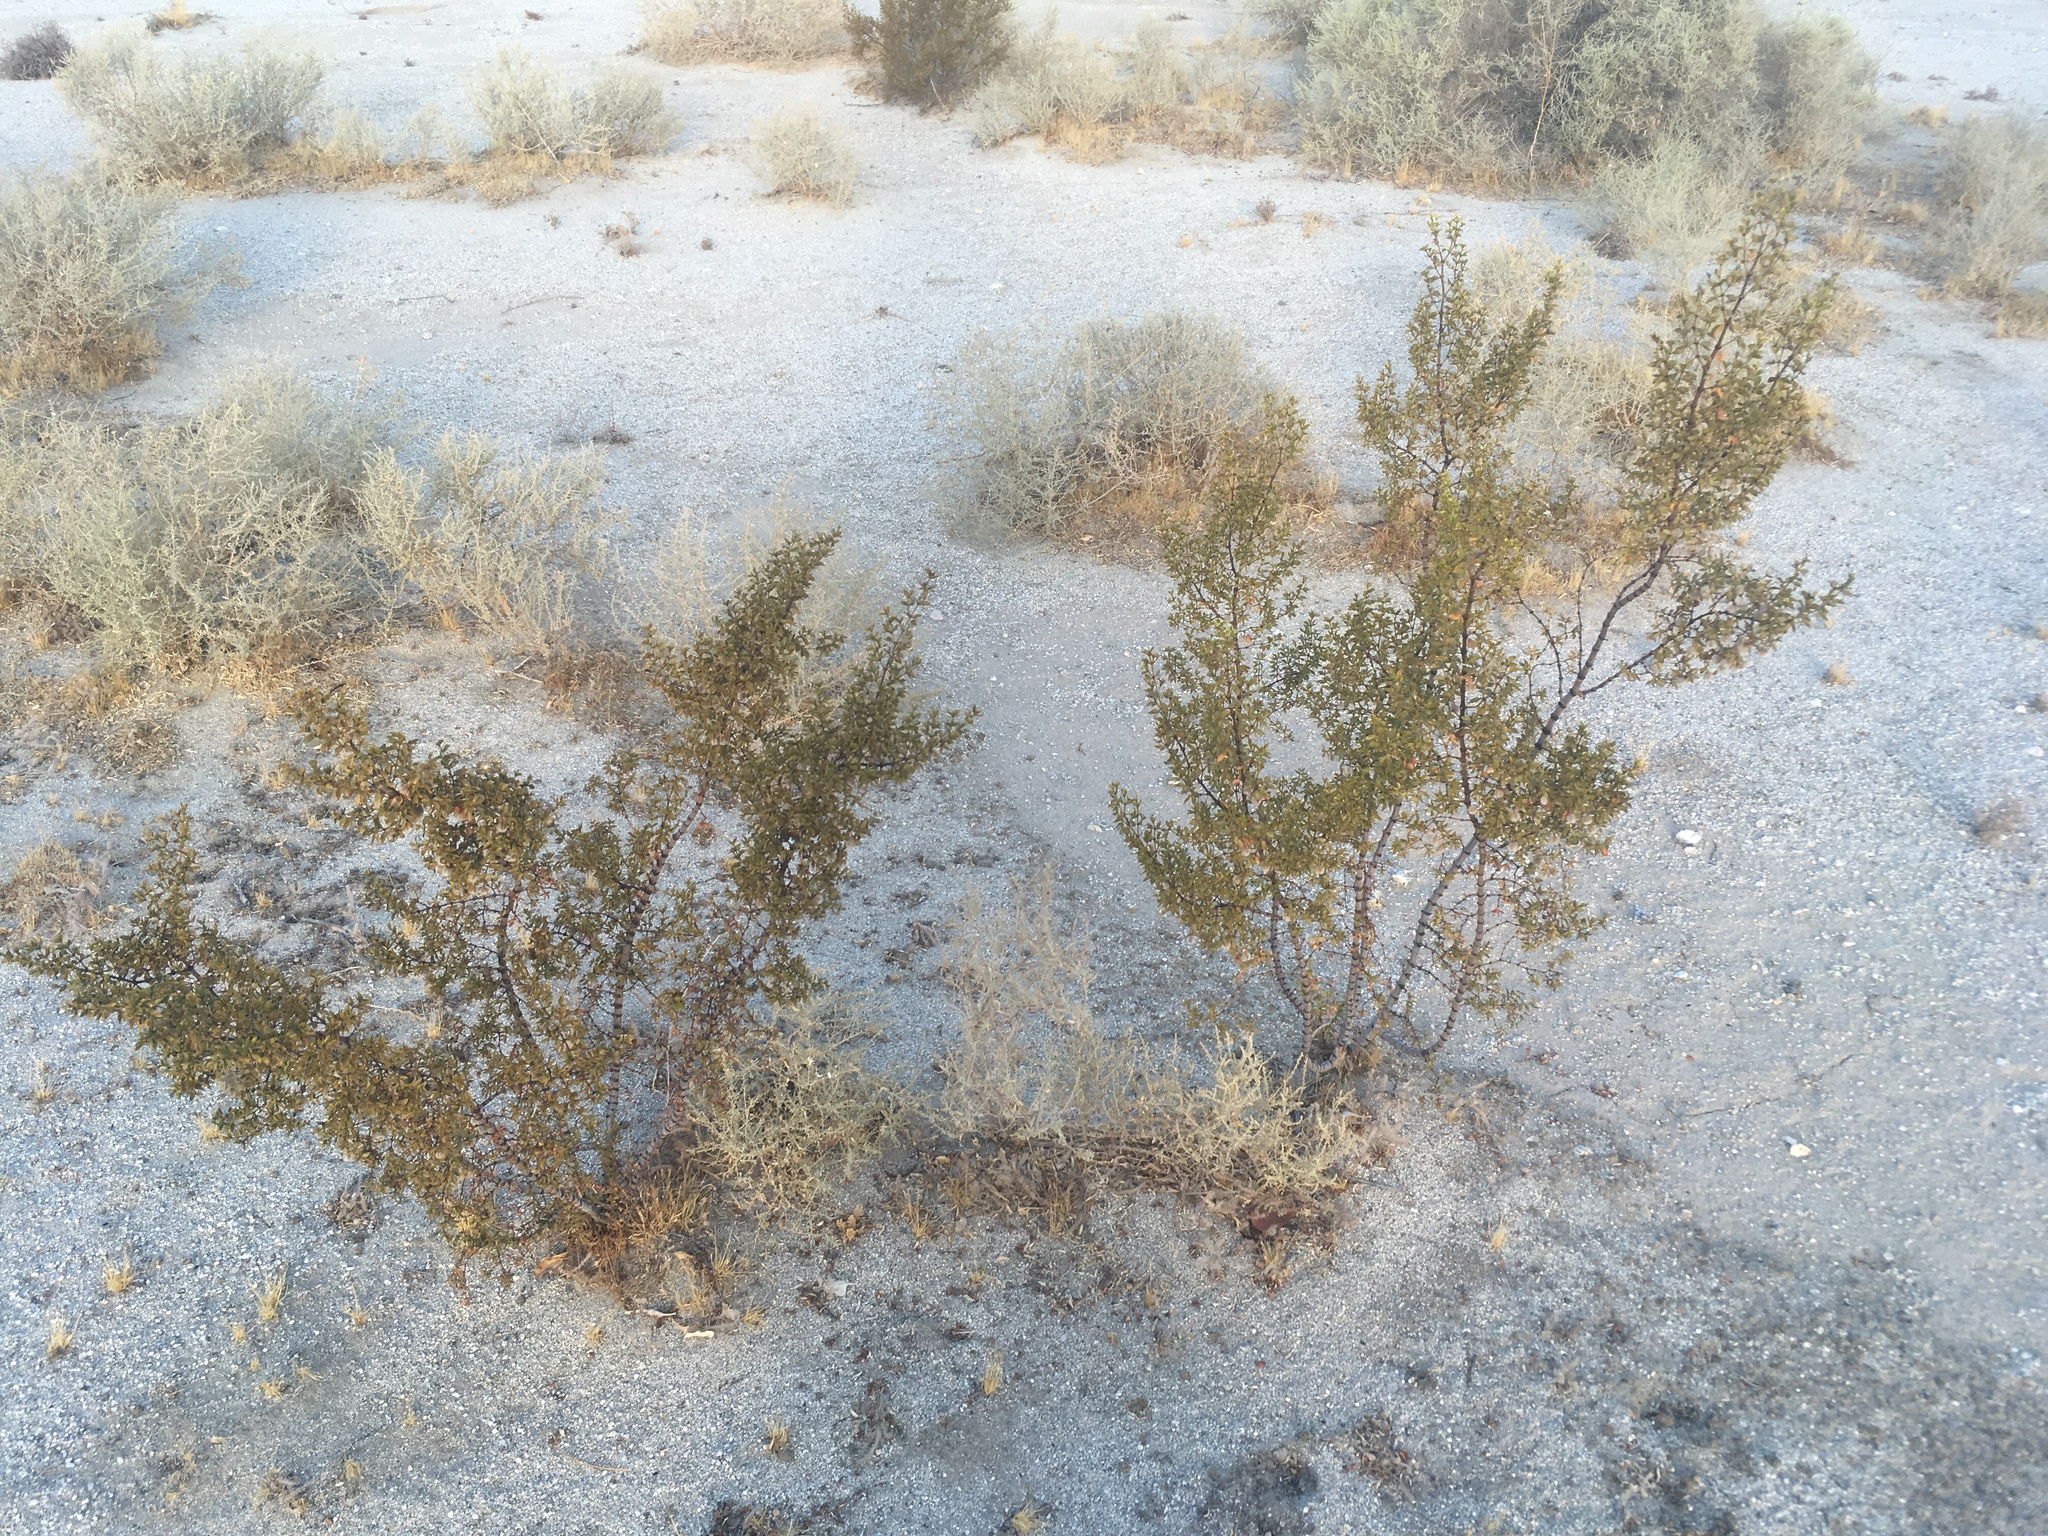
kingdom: Plantae
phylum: Tracheophyta
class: Magnoliopsida
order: Zygophyllales
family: Zygophyllaceae
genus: Larrea
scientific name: Larrea tridentata
